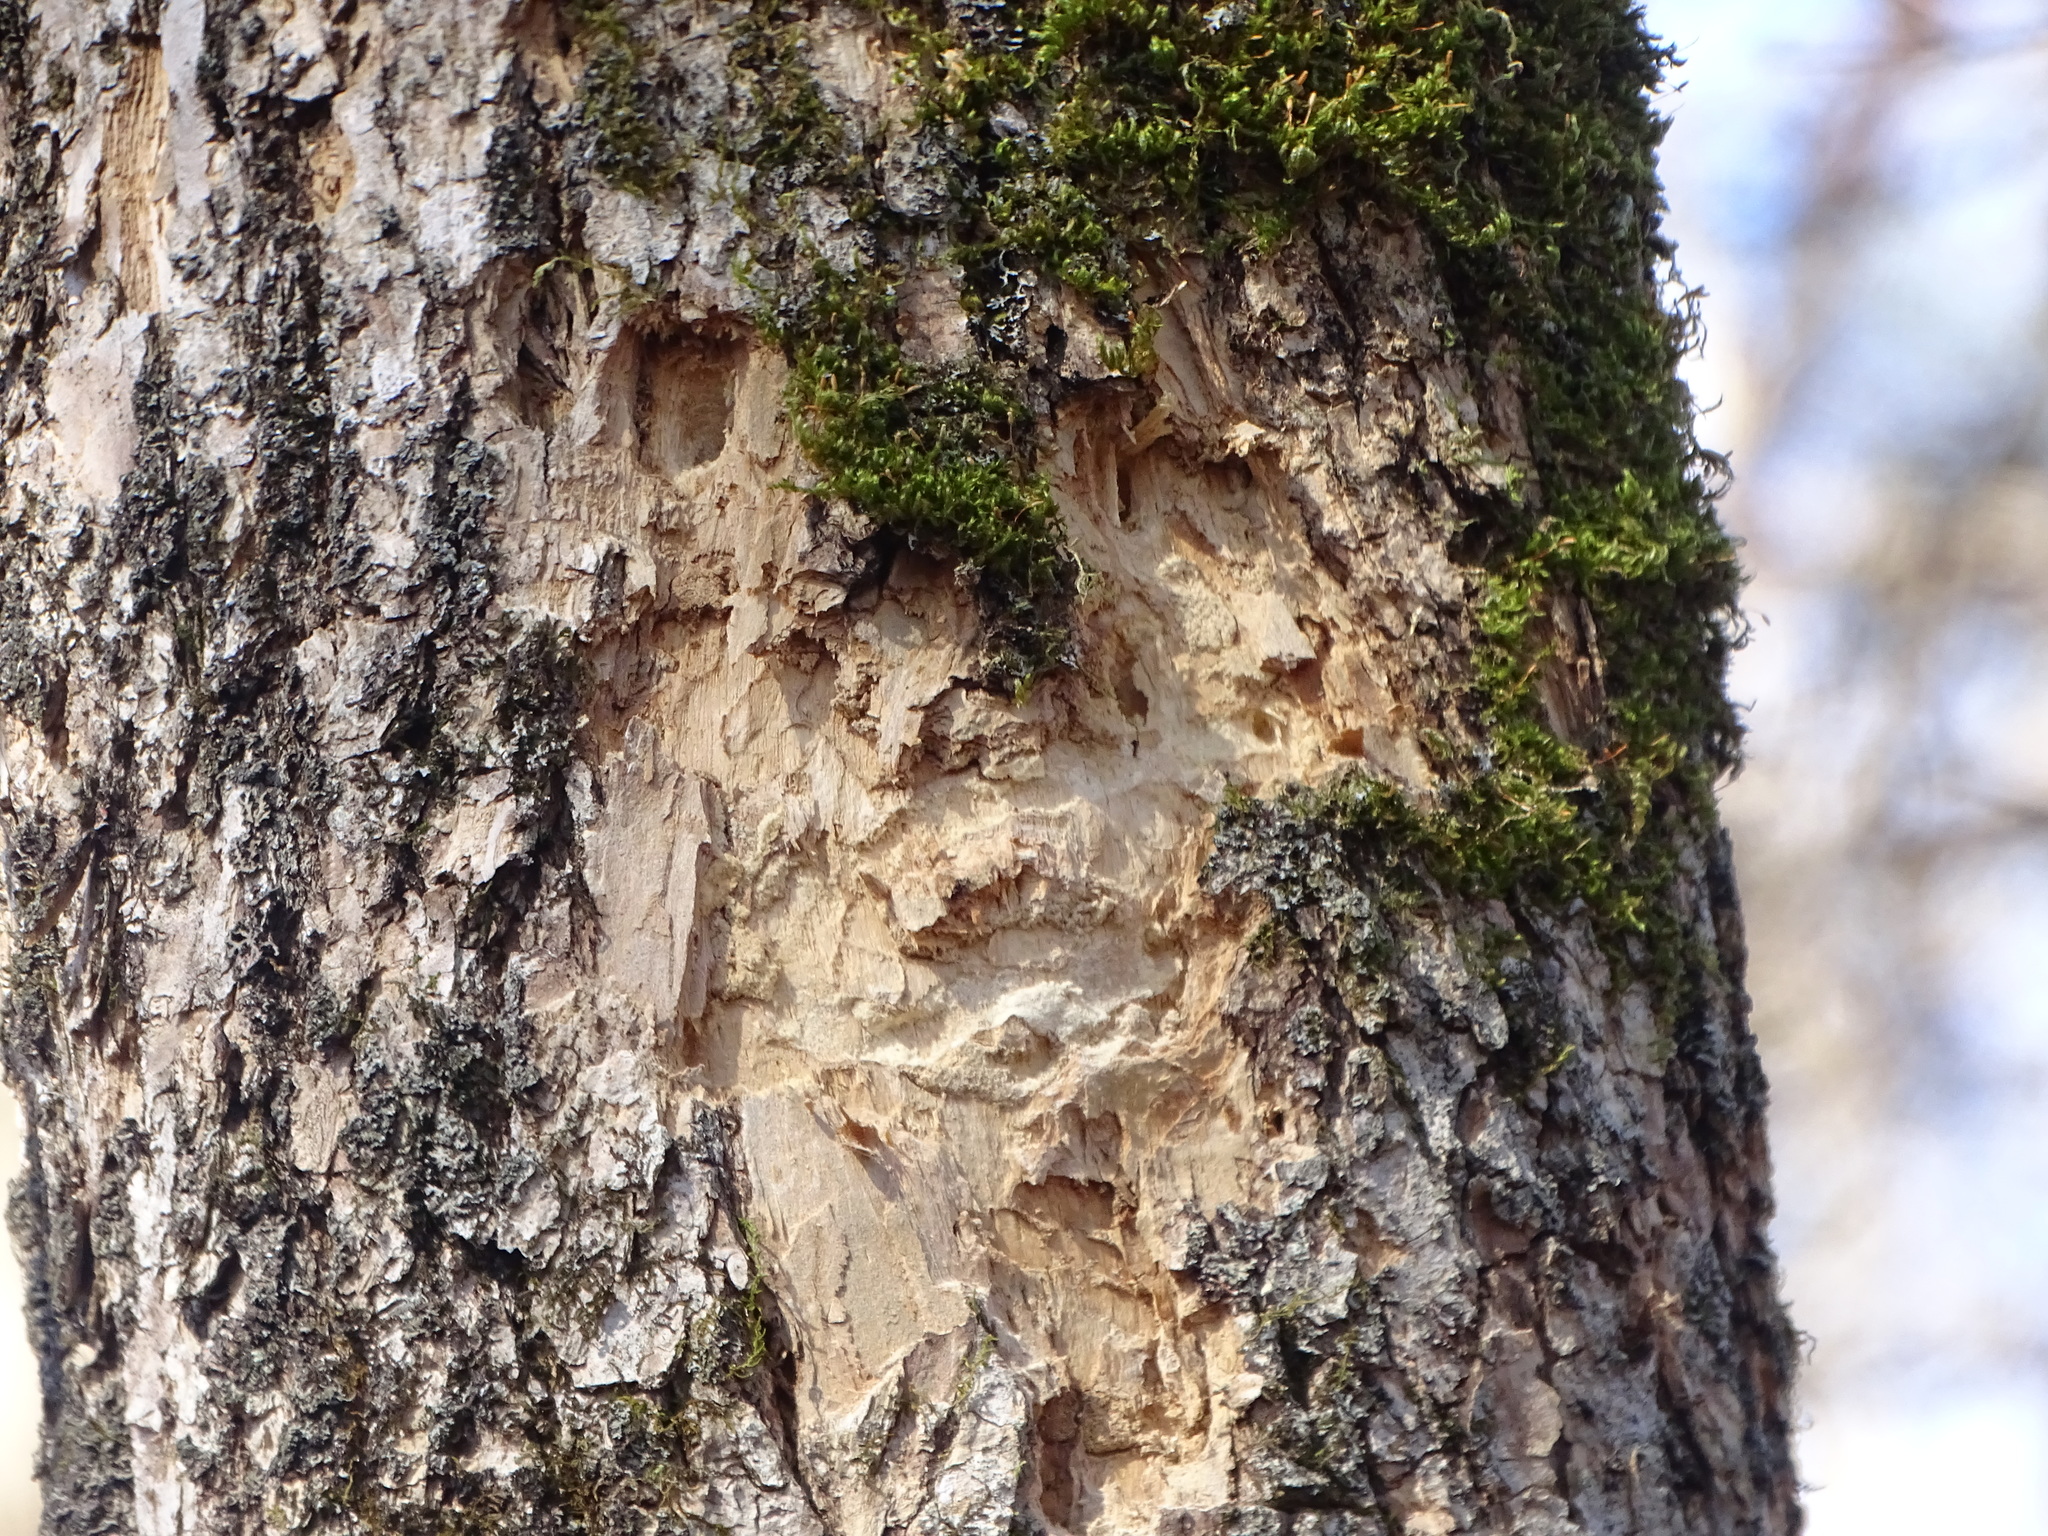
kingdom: Animalia
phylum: Arthropoda
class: Insecta
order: Coleoptera
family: Buprestidae
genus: Agrilus
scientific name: Agrilus planipennis
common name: Emerald ash borer
